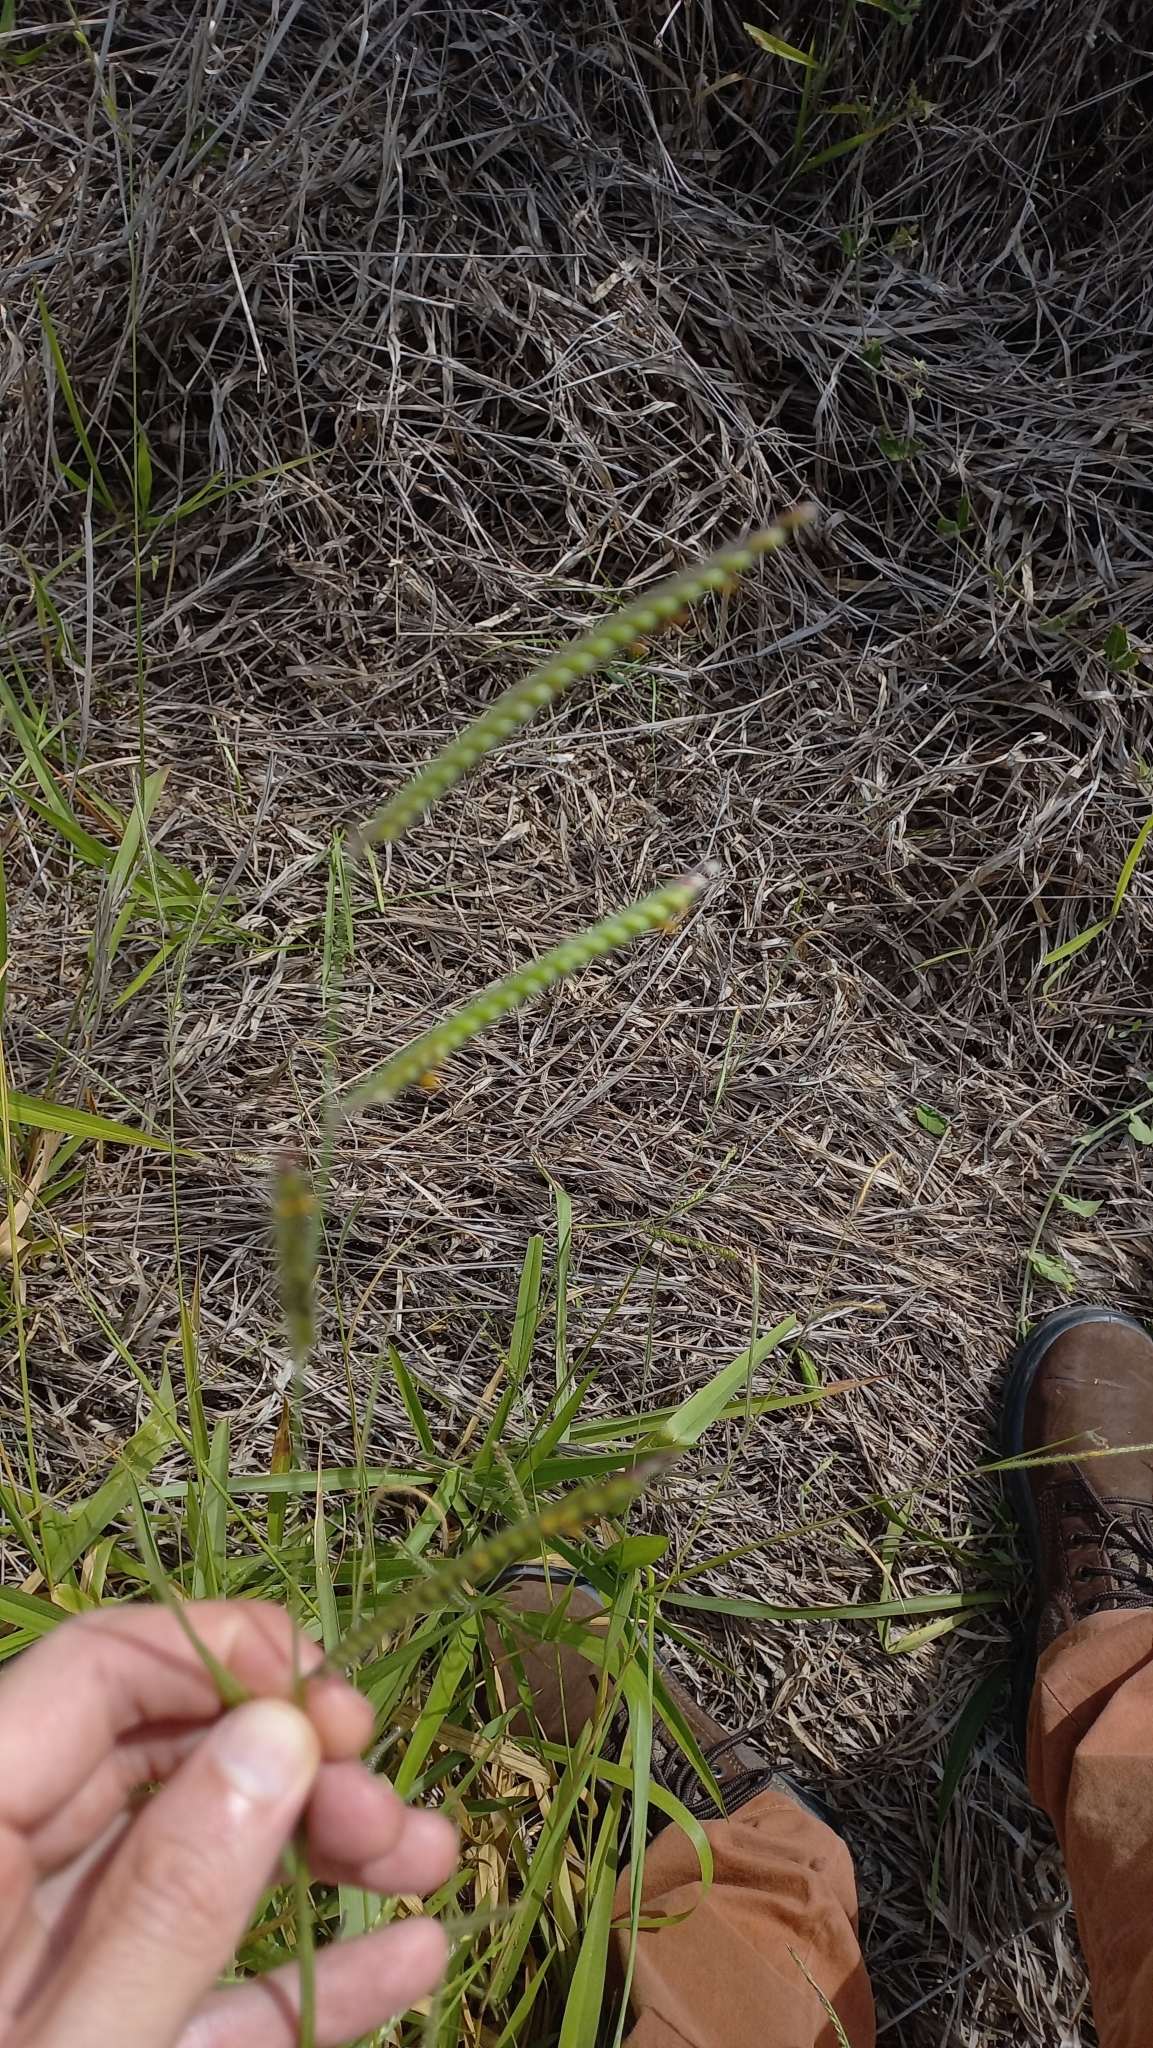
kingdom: Plantae
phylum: Tracheophyta
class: Liliopsida
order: Poales
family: Poaceae
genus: Urochloa
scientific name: Urochloa eminii
